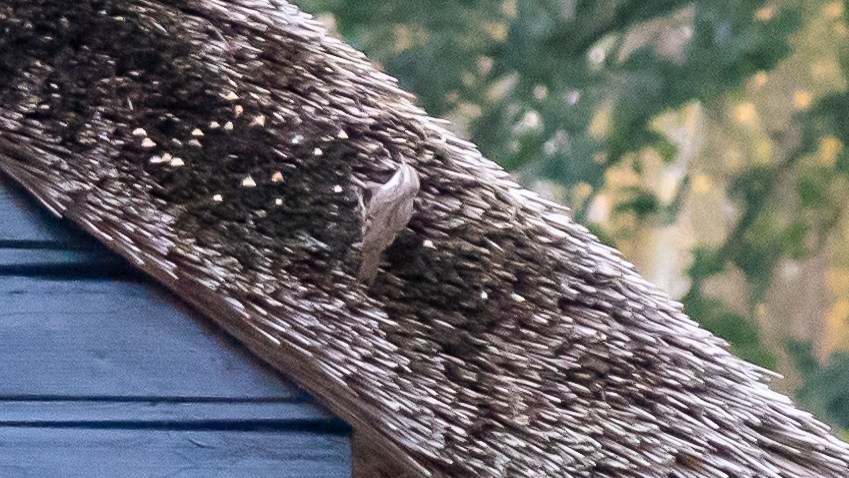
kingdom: Animalia
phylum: Chordata
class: Aves
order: Passeriformes
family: Certhiidae
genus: Certhia
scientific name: Certhia brachydactyla
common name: Short-toed treecreeper
